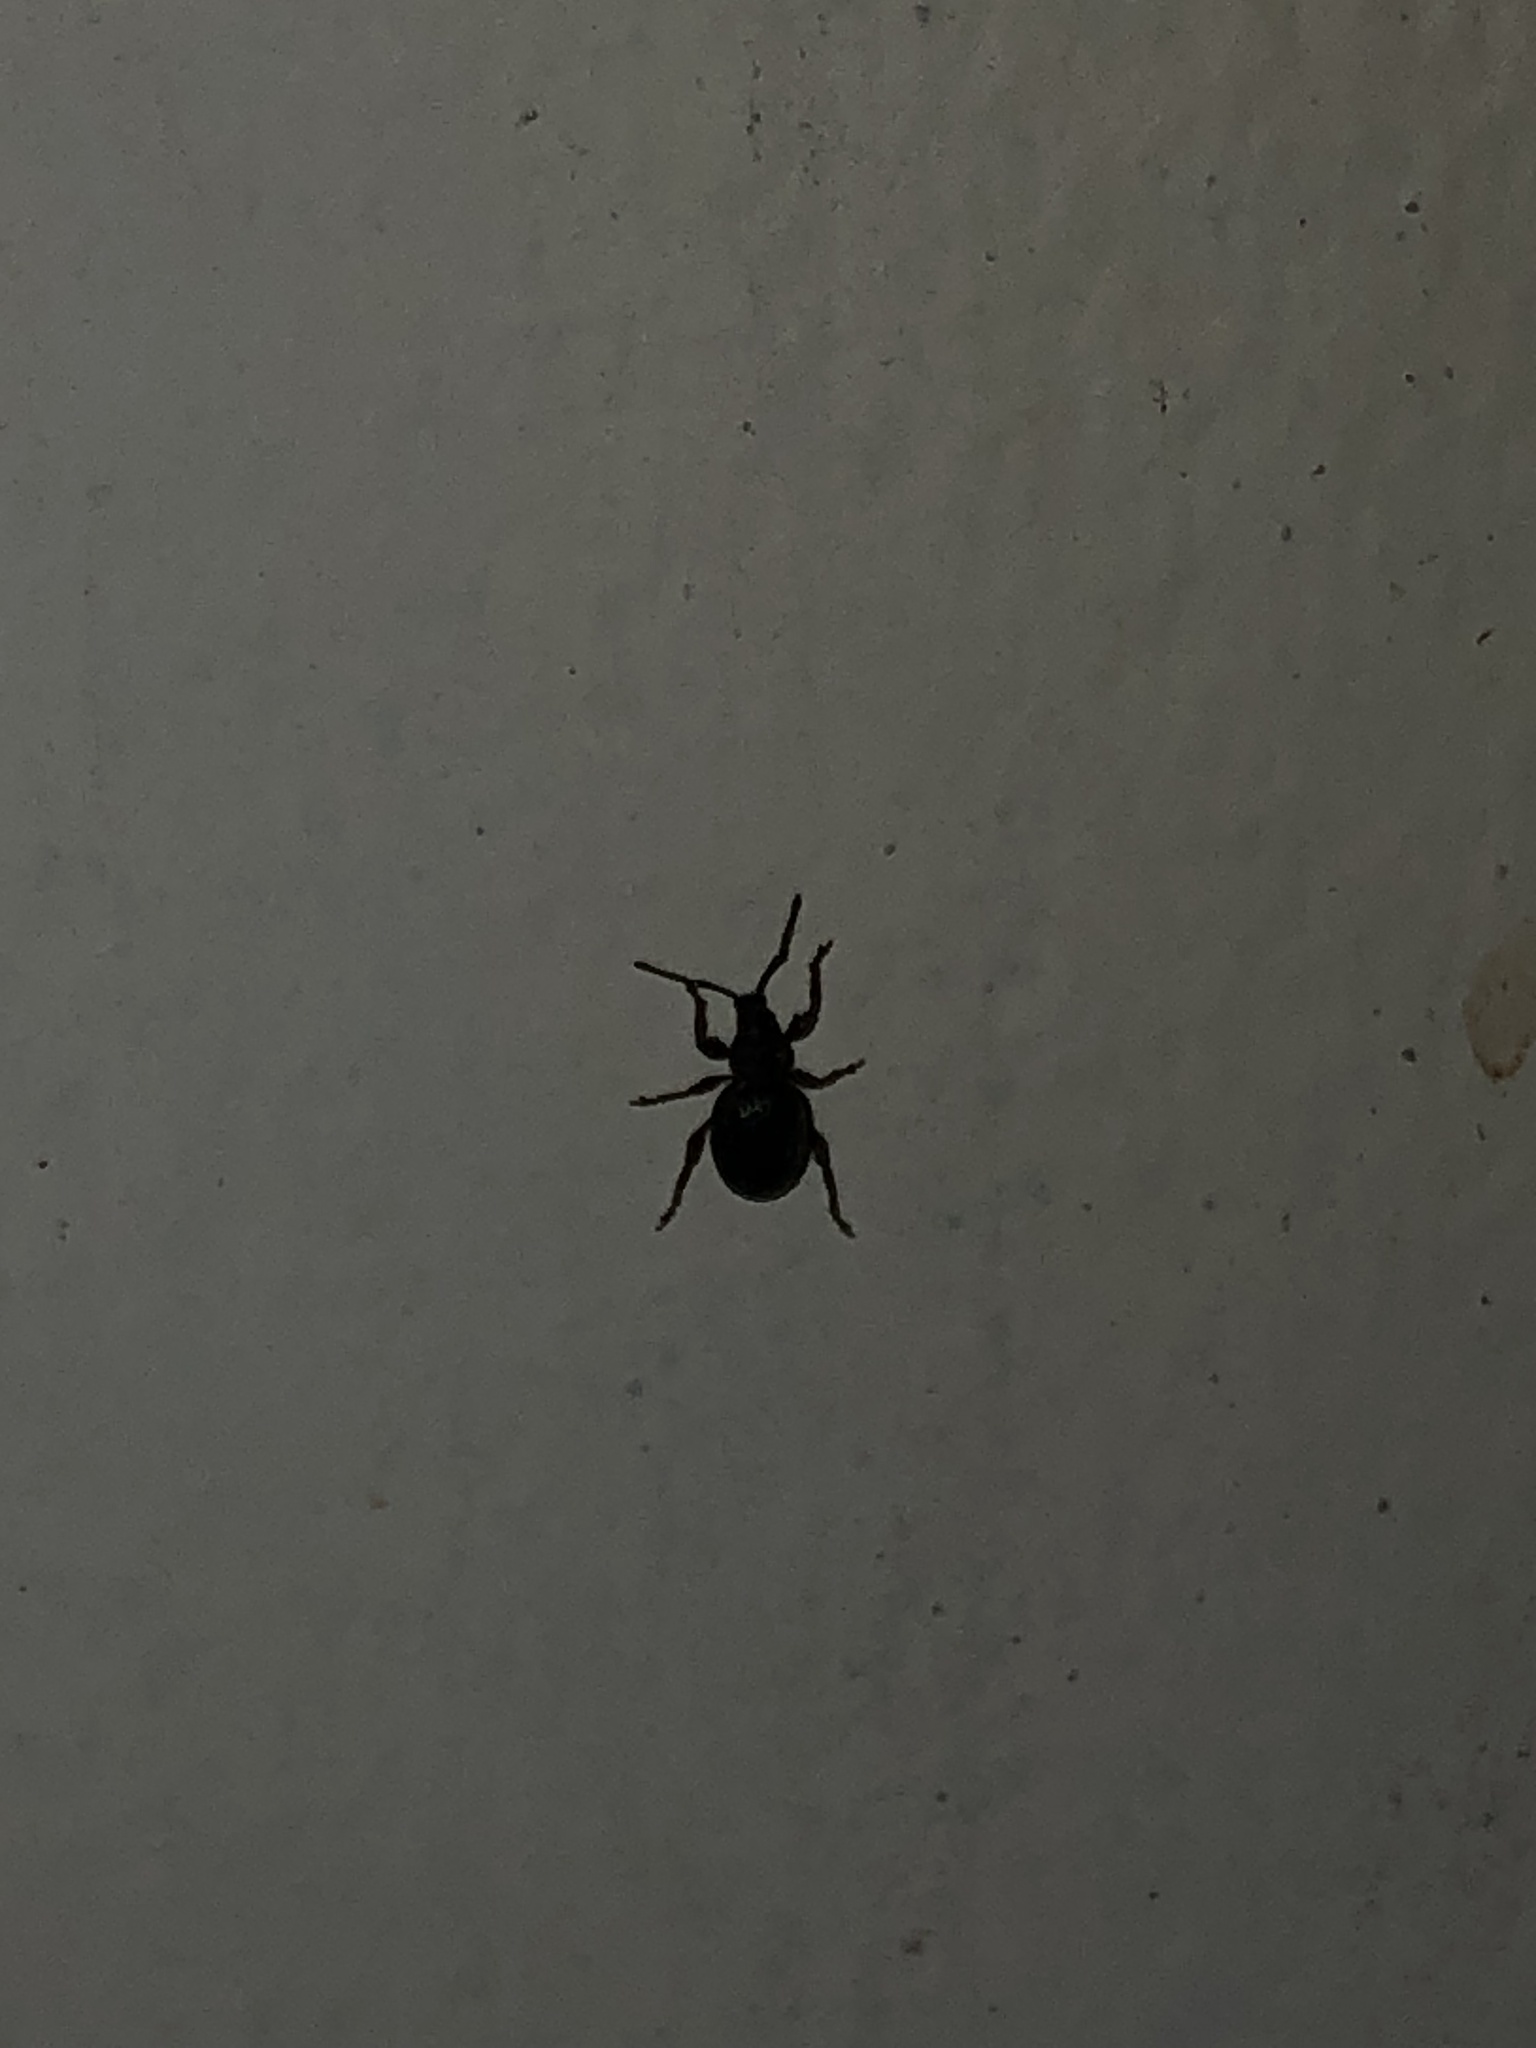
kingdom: Animalia
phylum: Arthropoda
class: Insecta
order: Coleoptera
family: Curculionidae
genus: Otiorhynchus
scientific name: Otiorhynchus ovatus
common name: Strawberry root weevil
